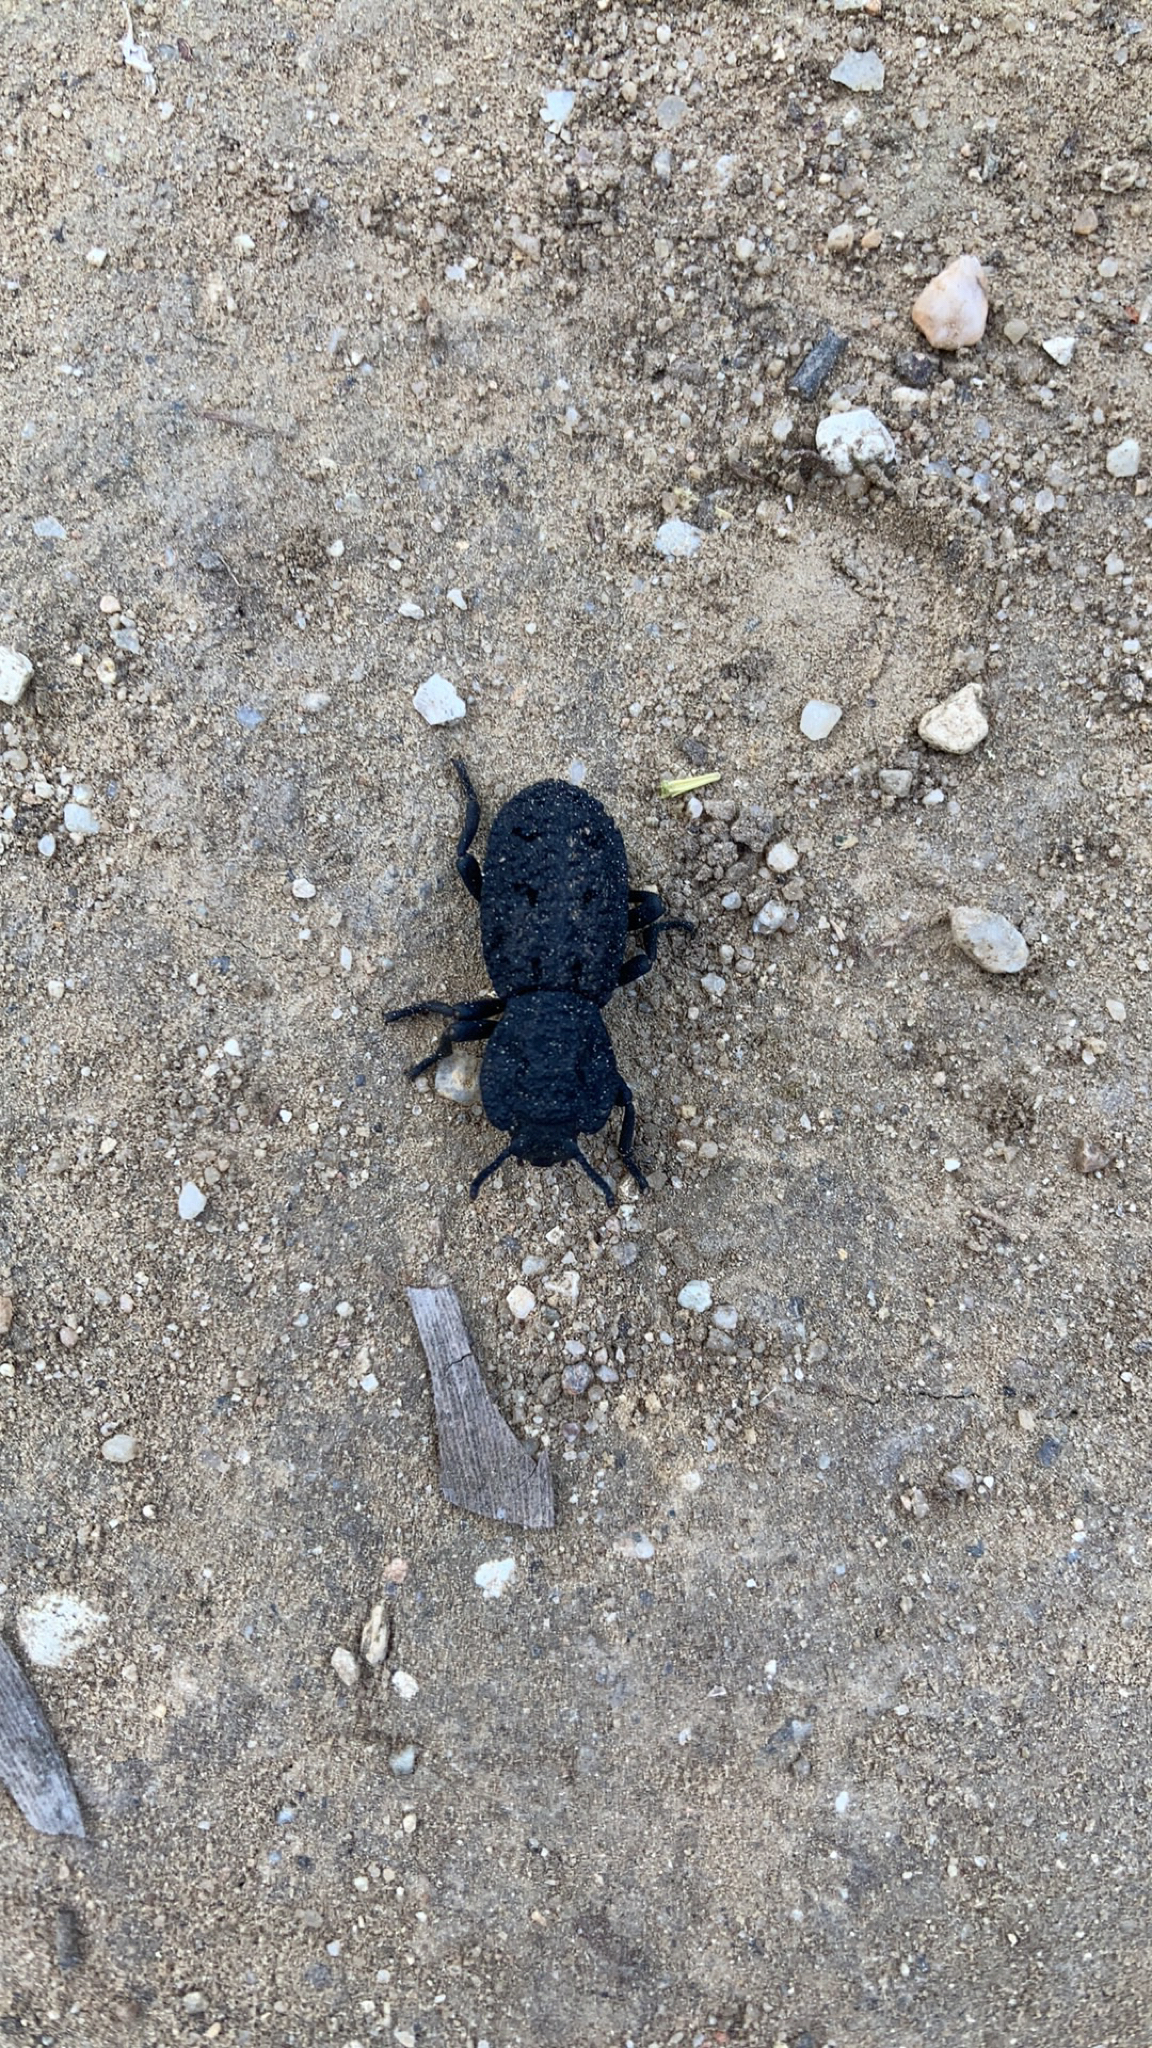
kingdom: Animalia
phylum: Arthropoda
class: Insecta
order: Coleoptera
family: Zopheridae
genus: Phloeodes
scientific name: Phloeodes diabolicus
